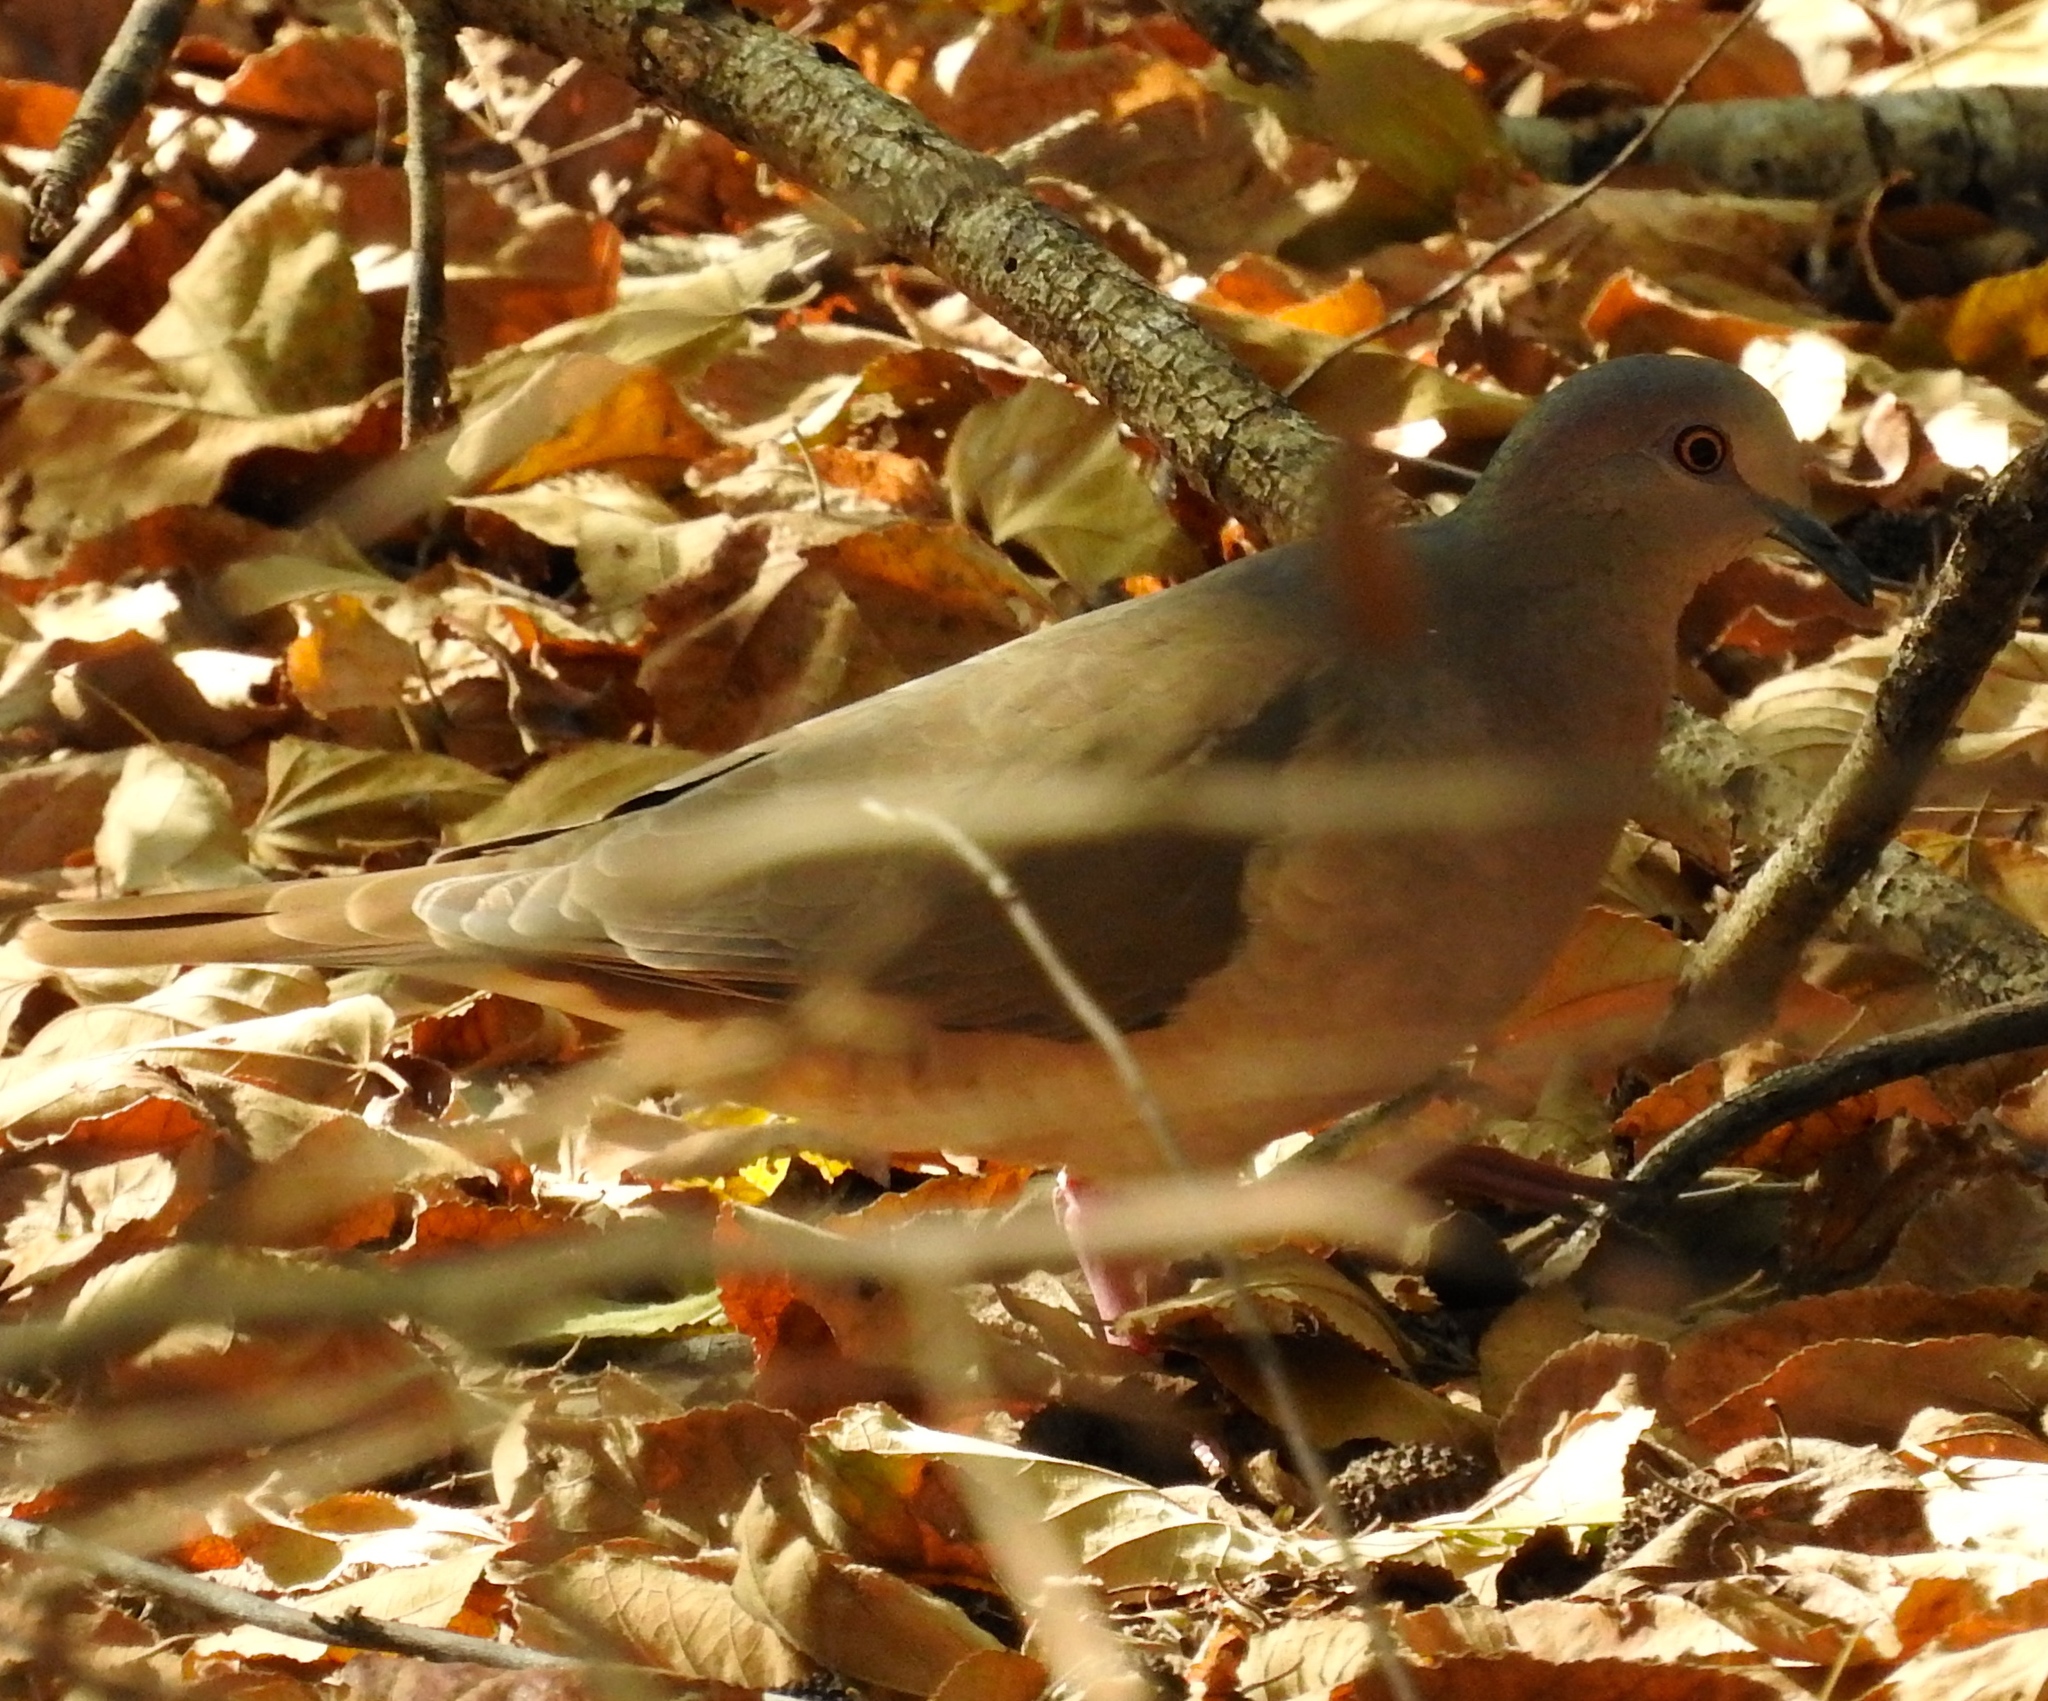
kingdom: Animalia
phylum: Chordata
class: Aves
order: Columbiformes
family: Columbidae
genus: Leptotila
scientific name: Leptotila verreauxi
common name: White-tipped dove
